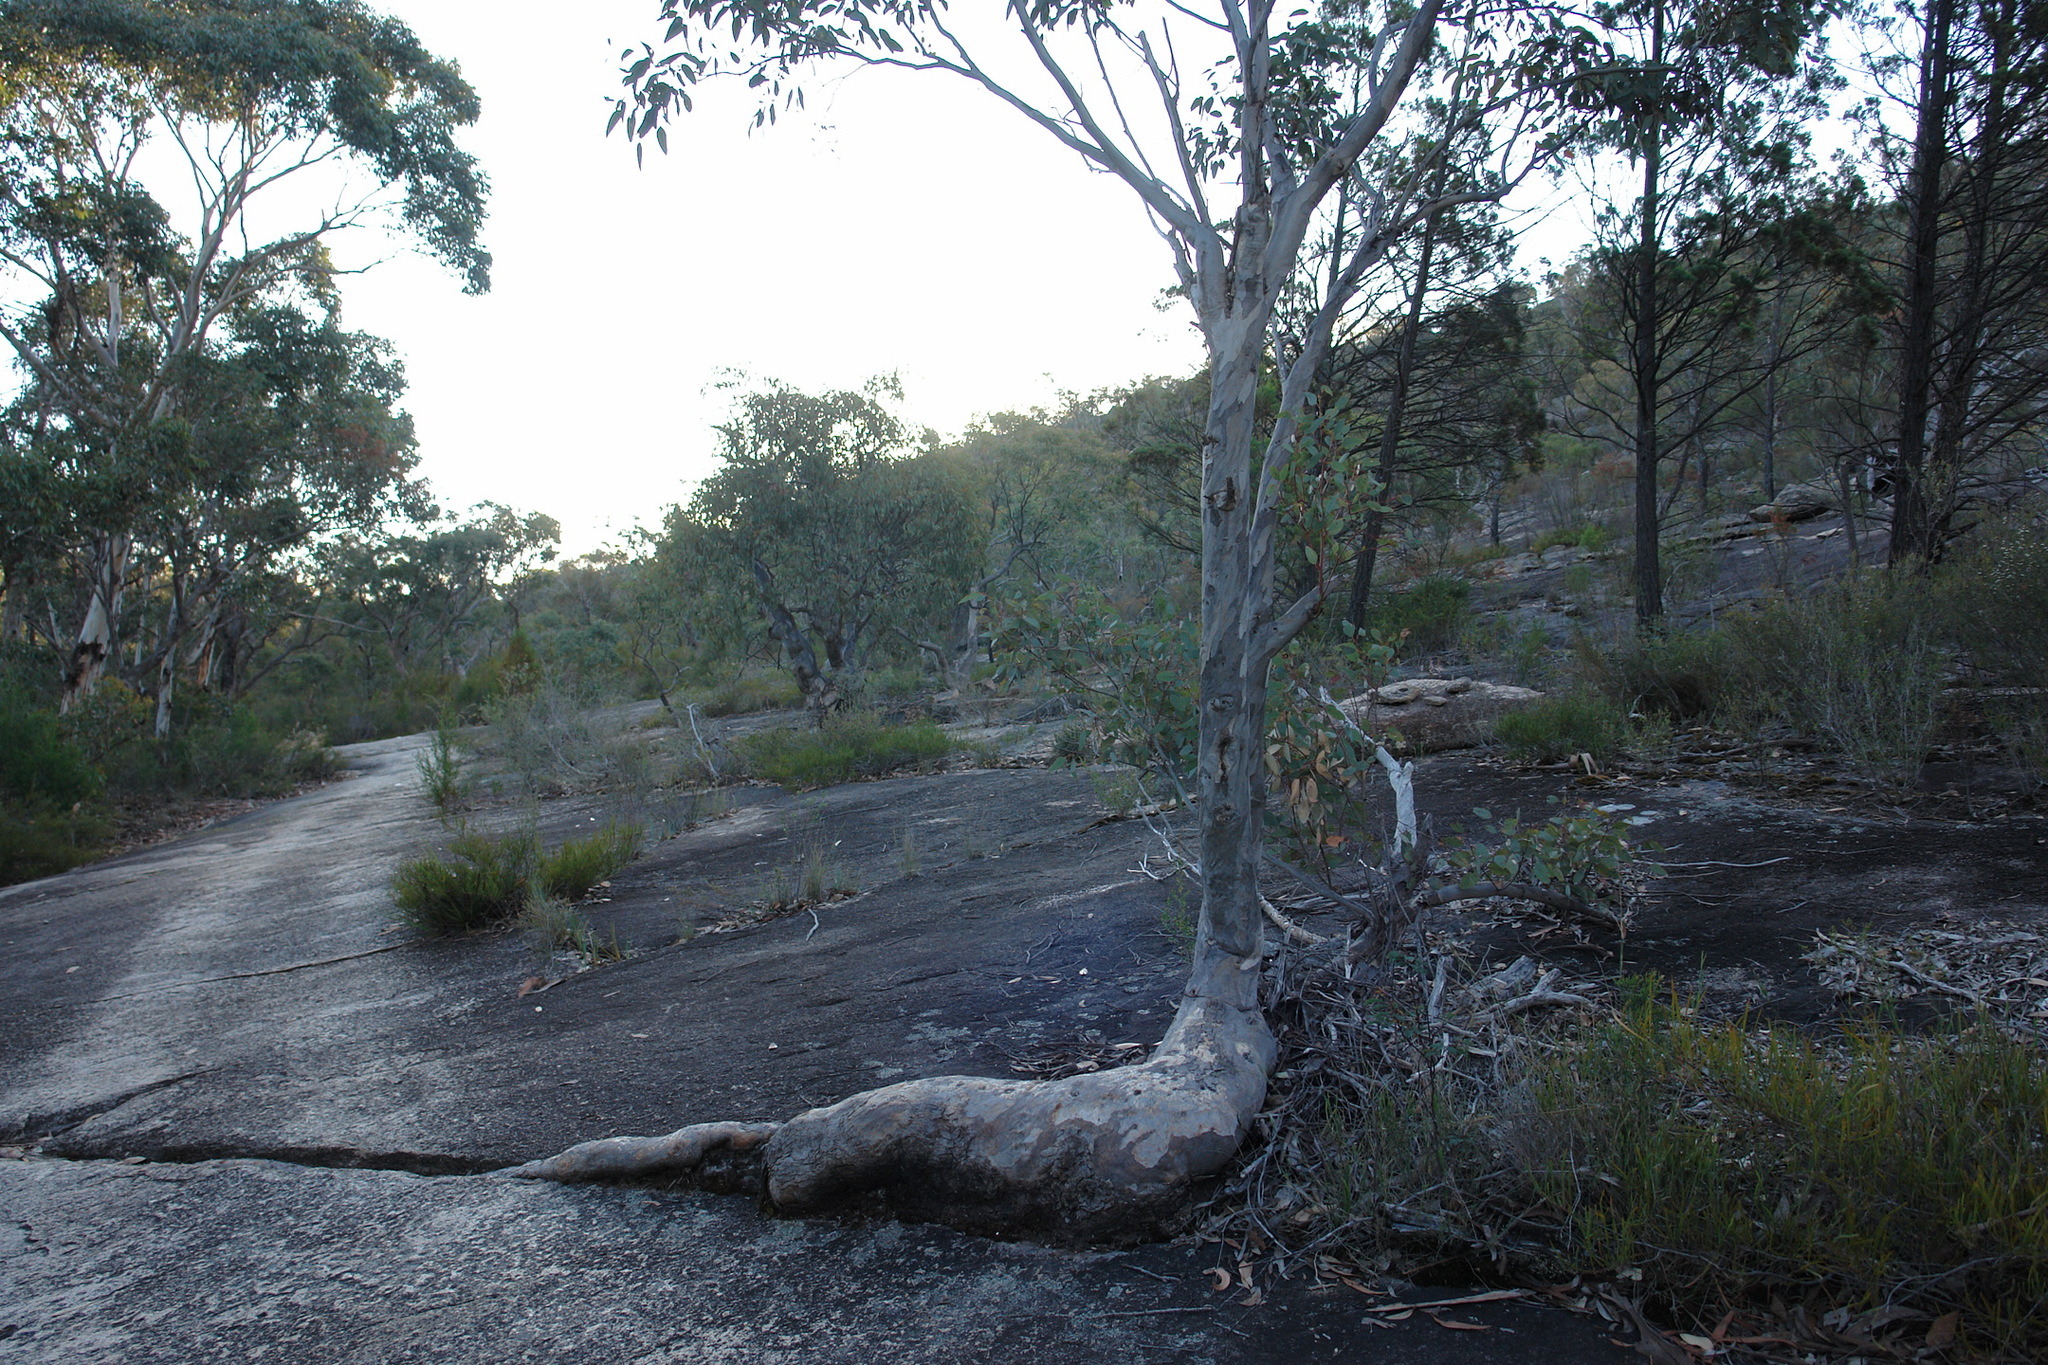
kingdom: Plantae
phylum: Tracheophyta
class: Magnoliopsida
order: Myrtales
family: Myrtaceae
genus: Eucalyptus
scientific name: Eucalyptus prava
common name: Orange gum
